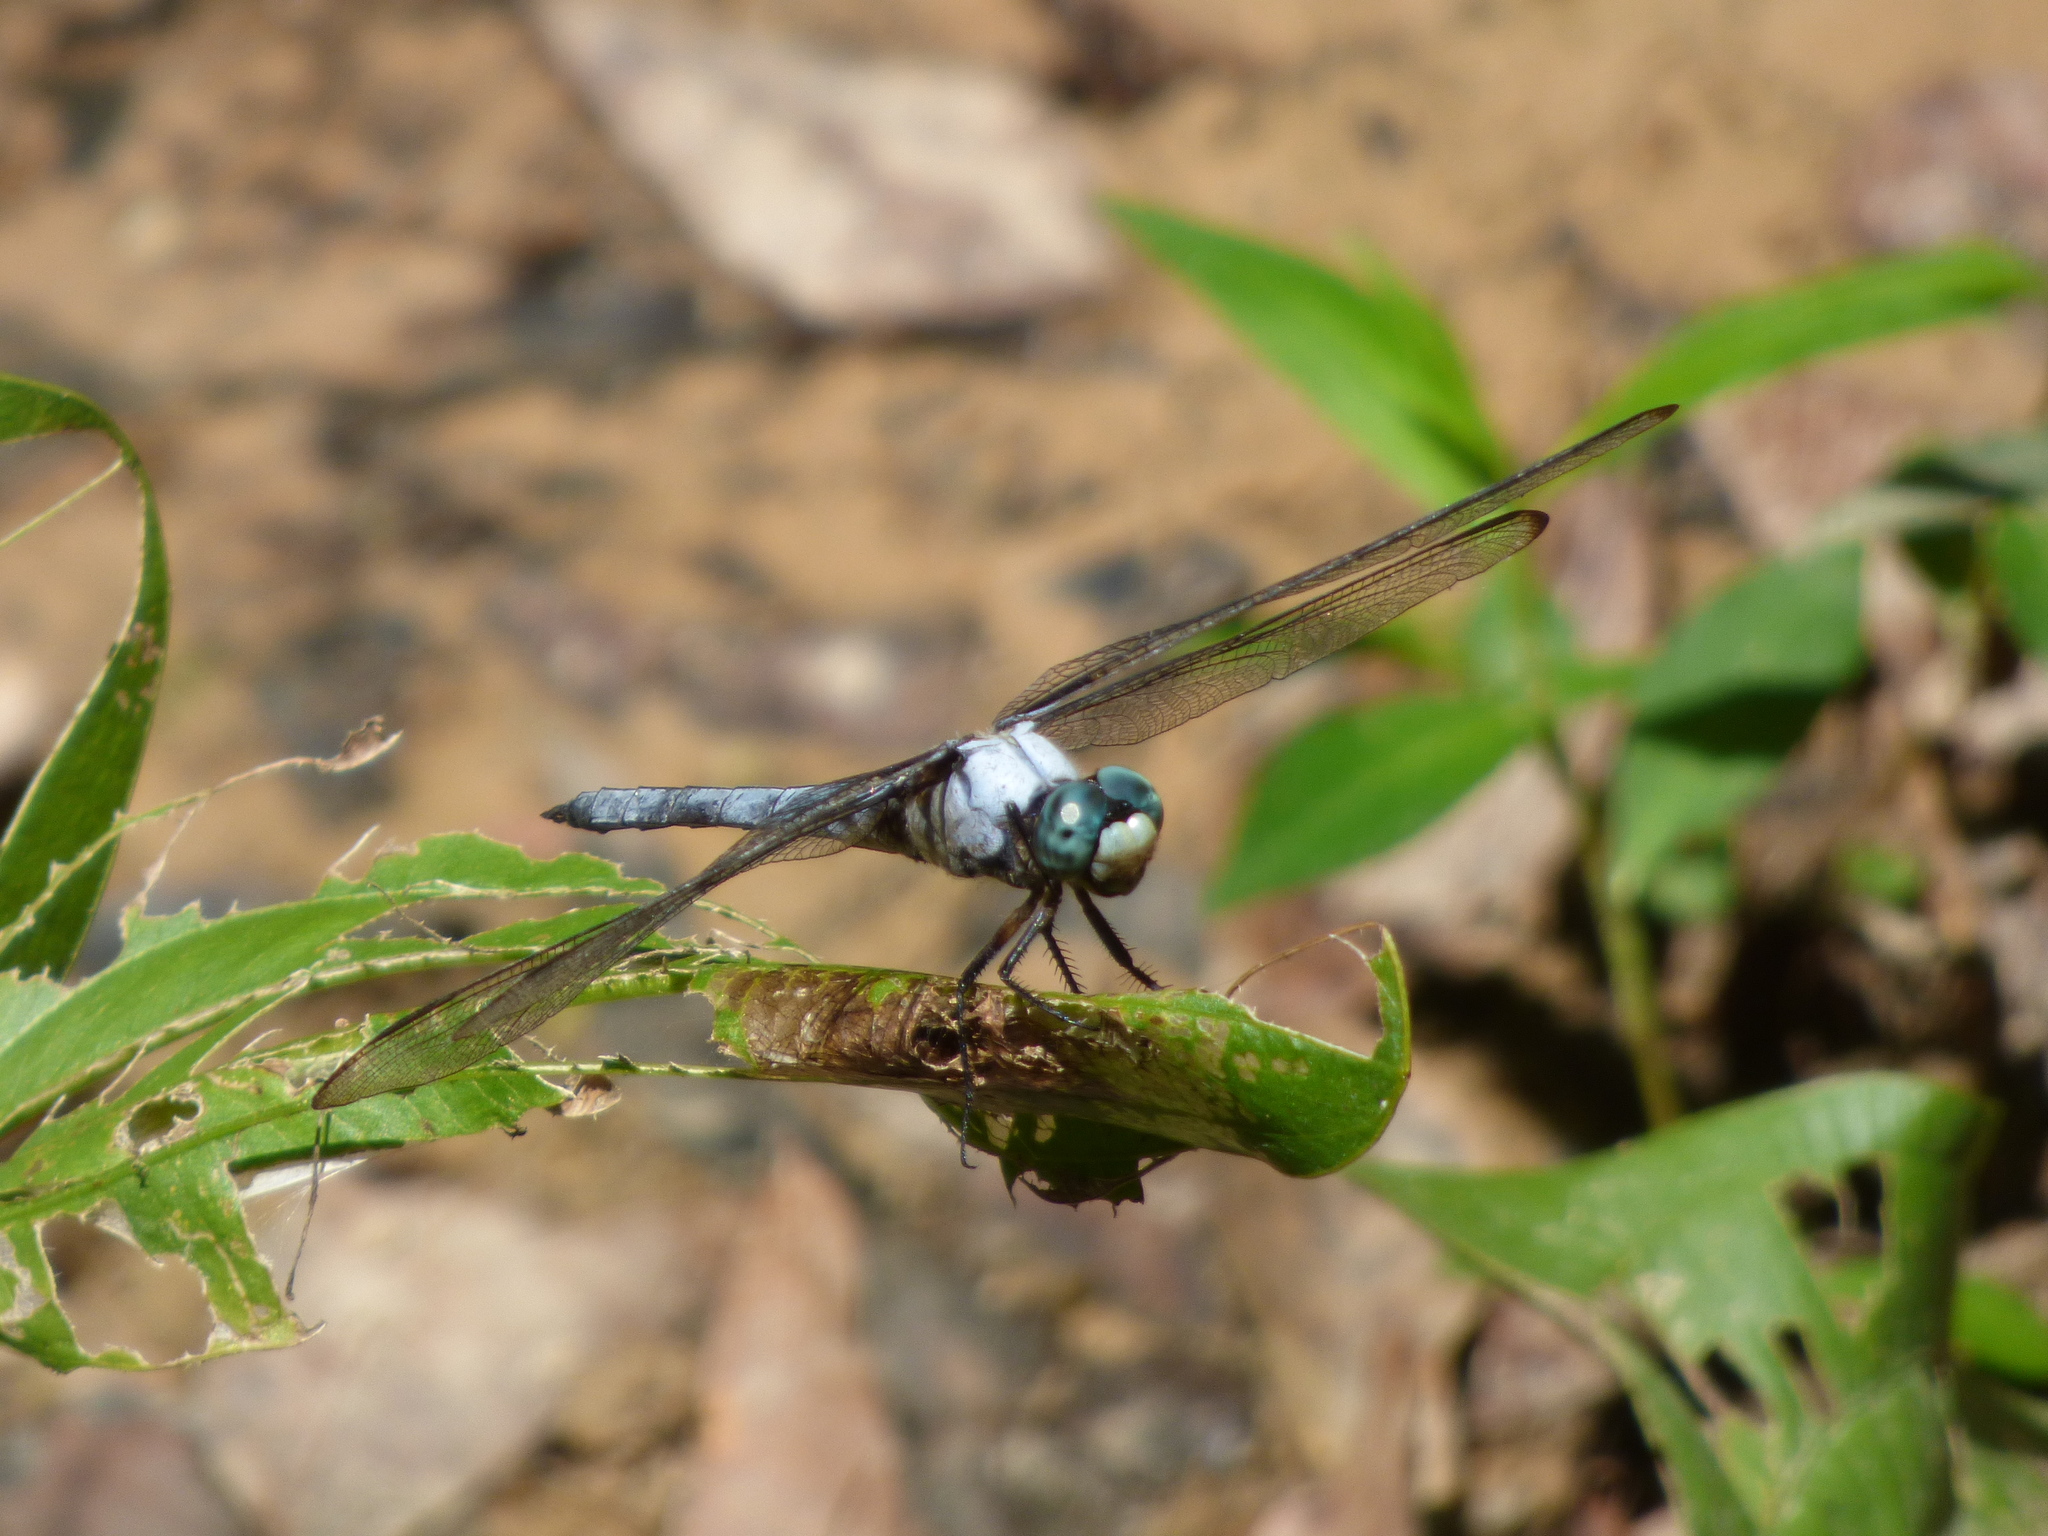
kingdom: Animalia
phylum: Arthropoda
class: Insecta
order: Odonata
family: Libellulidae
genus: Libellula
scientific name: Libellula vibrans
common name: Great blue skimmer
